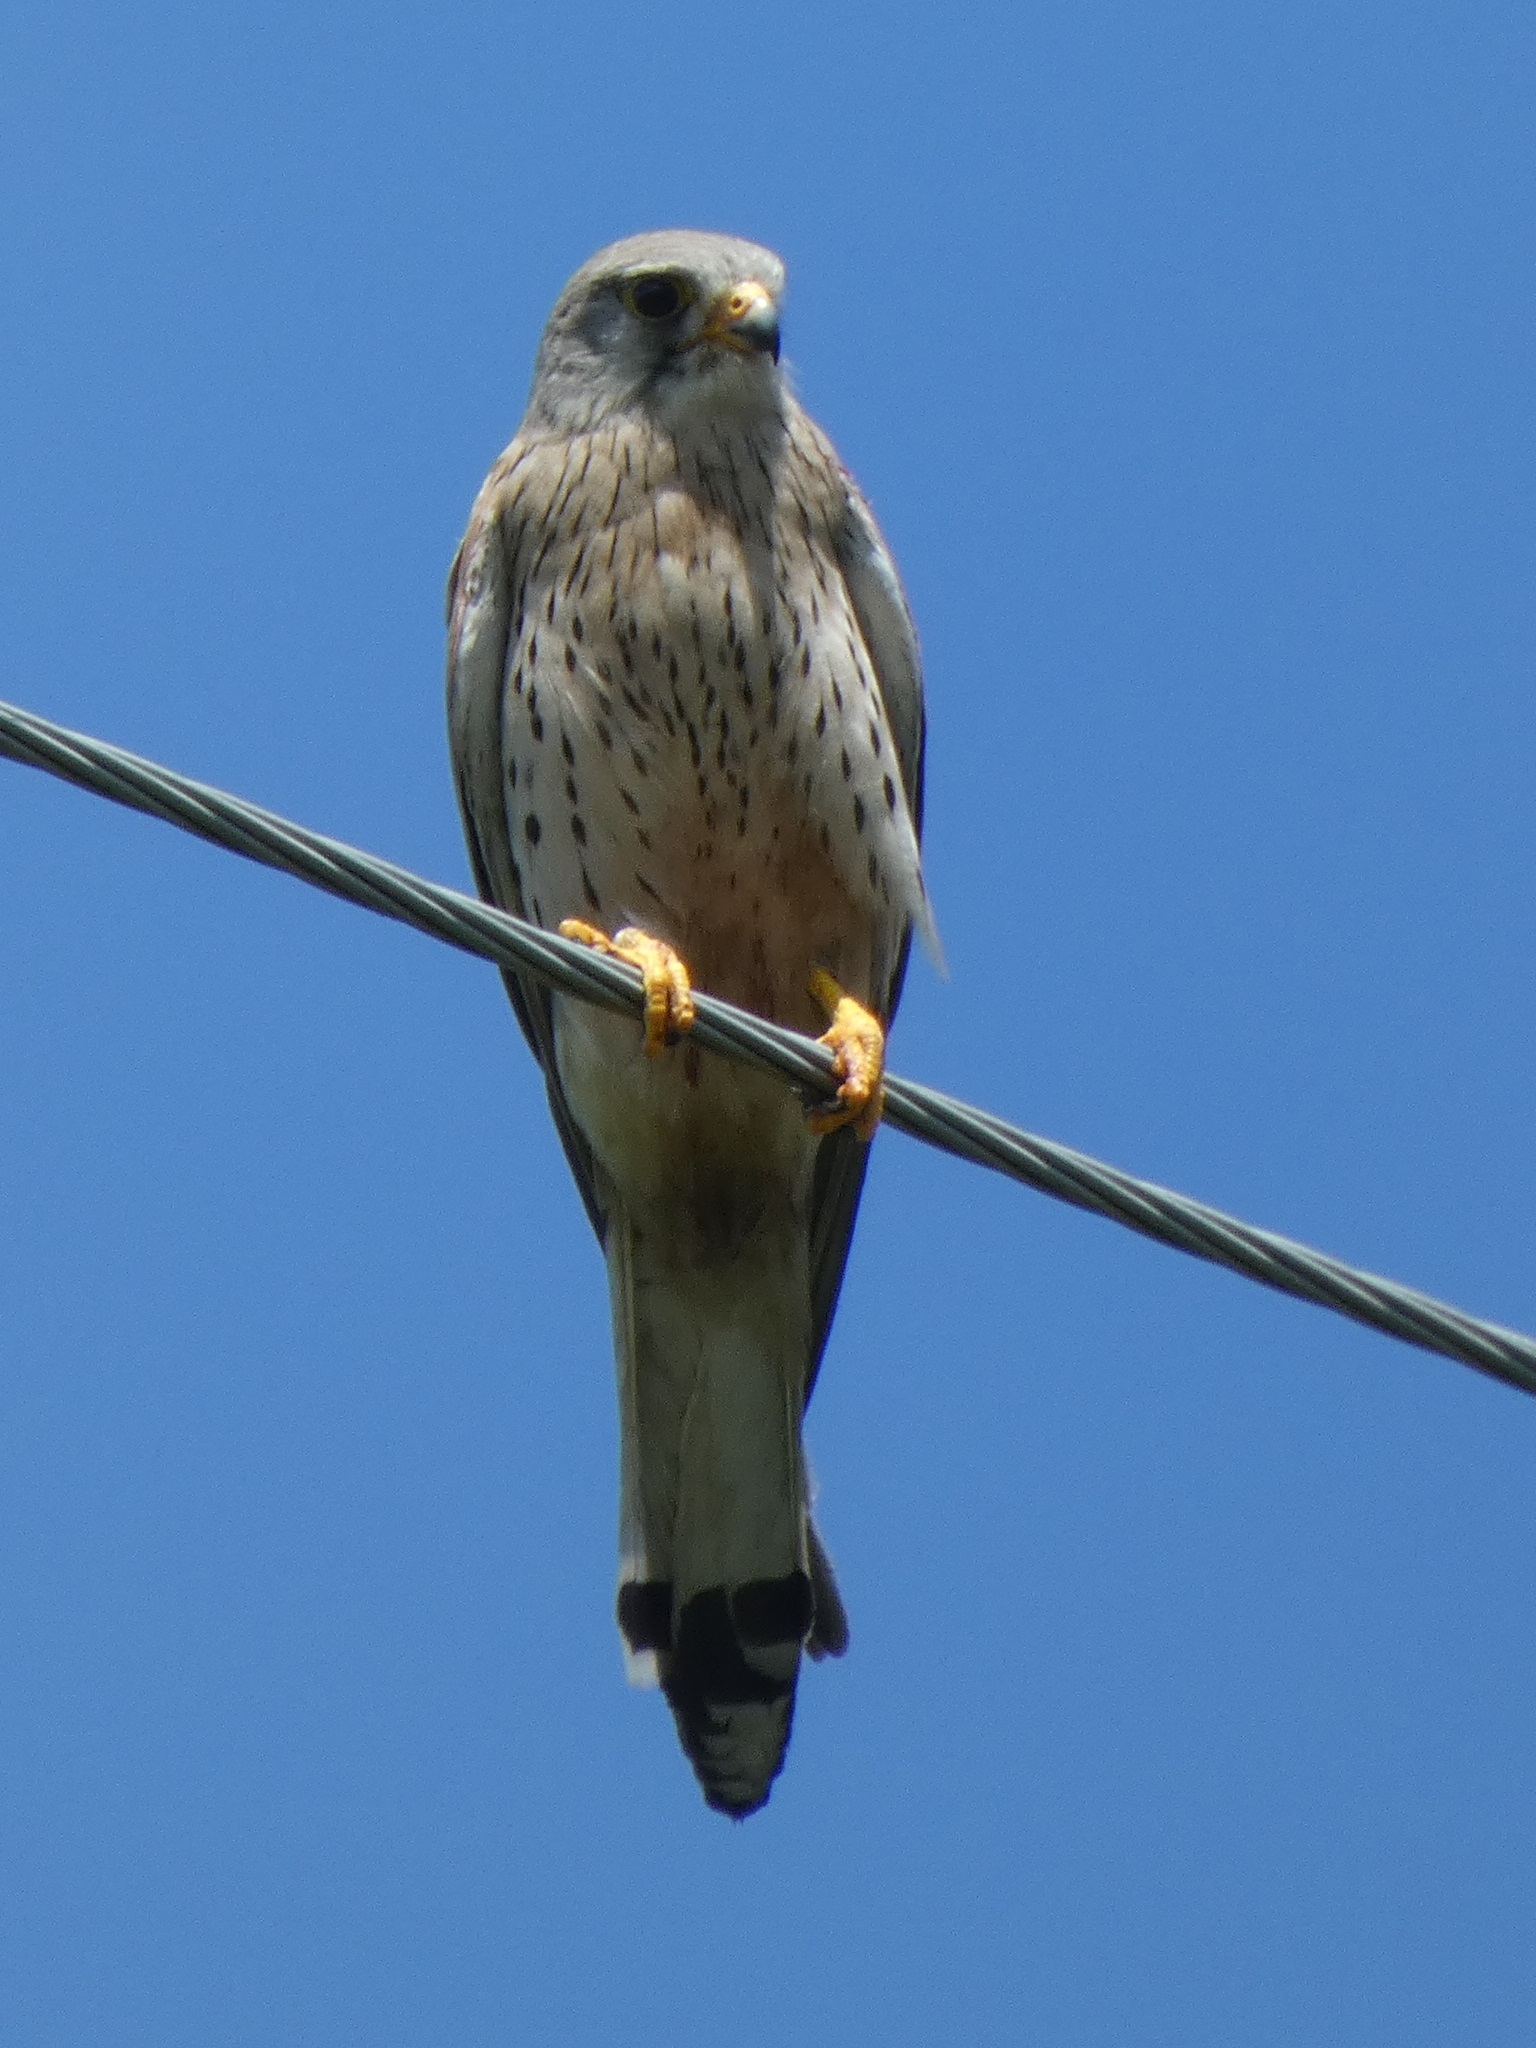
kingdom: Animalia
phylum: Chordata
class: Aves
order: Falconiformes
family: Falconidae
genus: Falco
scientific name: Falco tinnunculus
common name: Common kestrel
